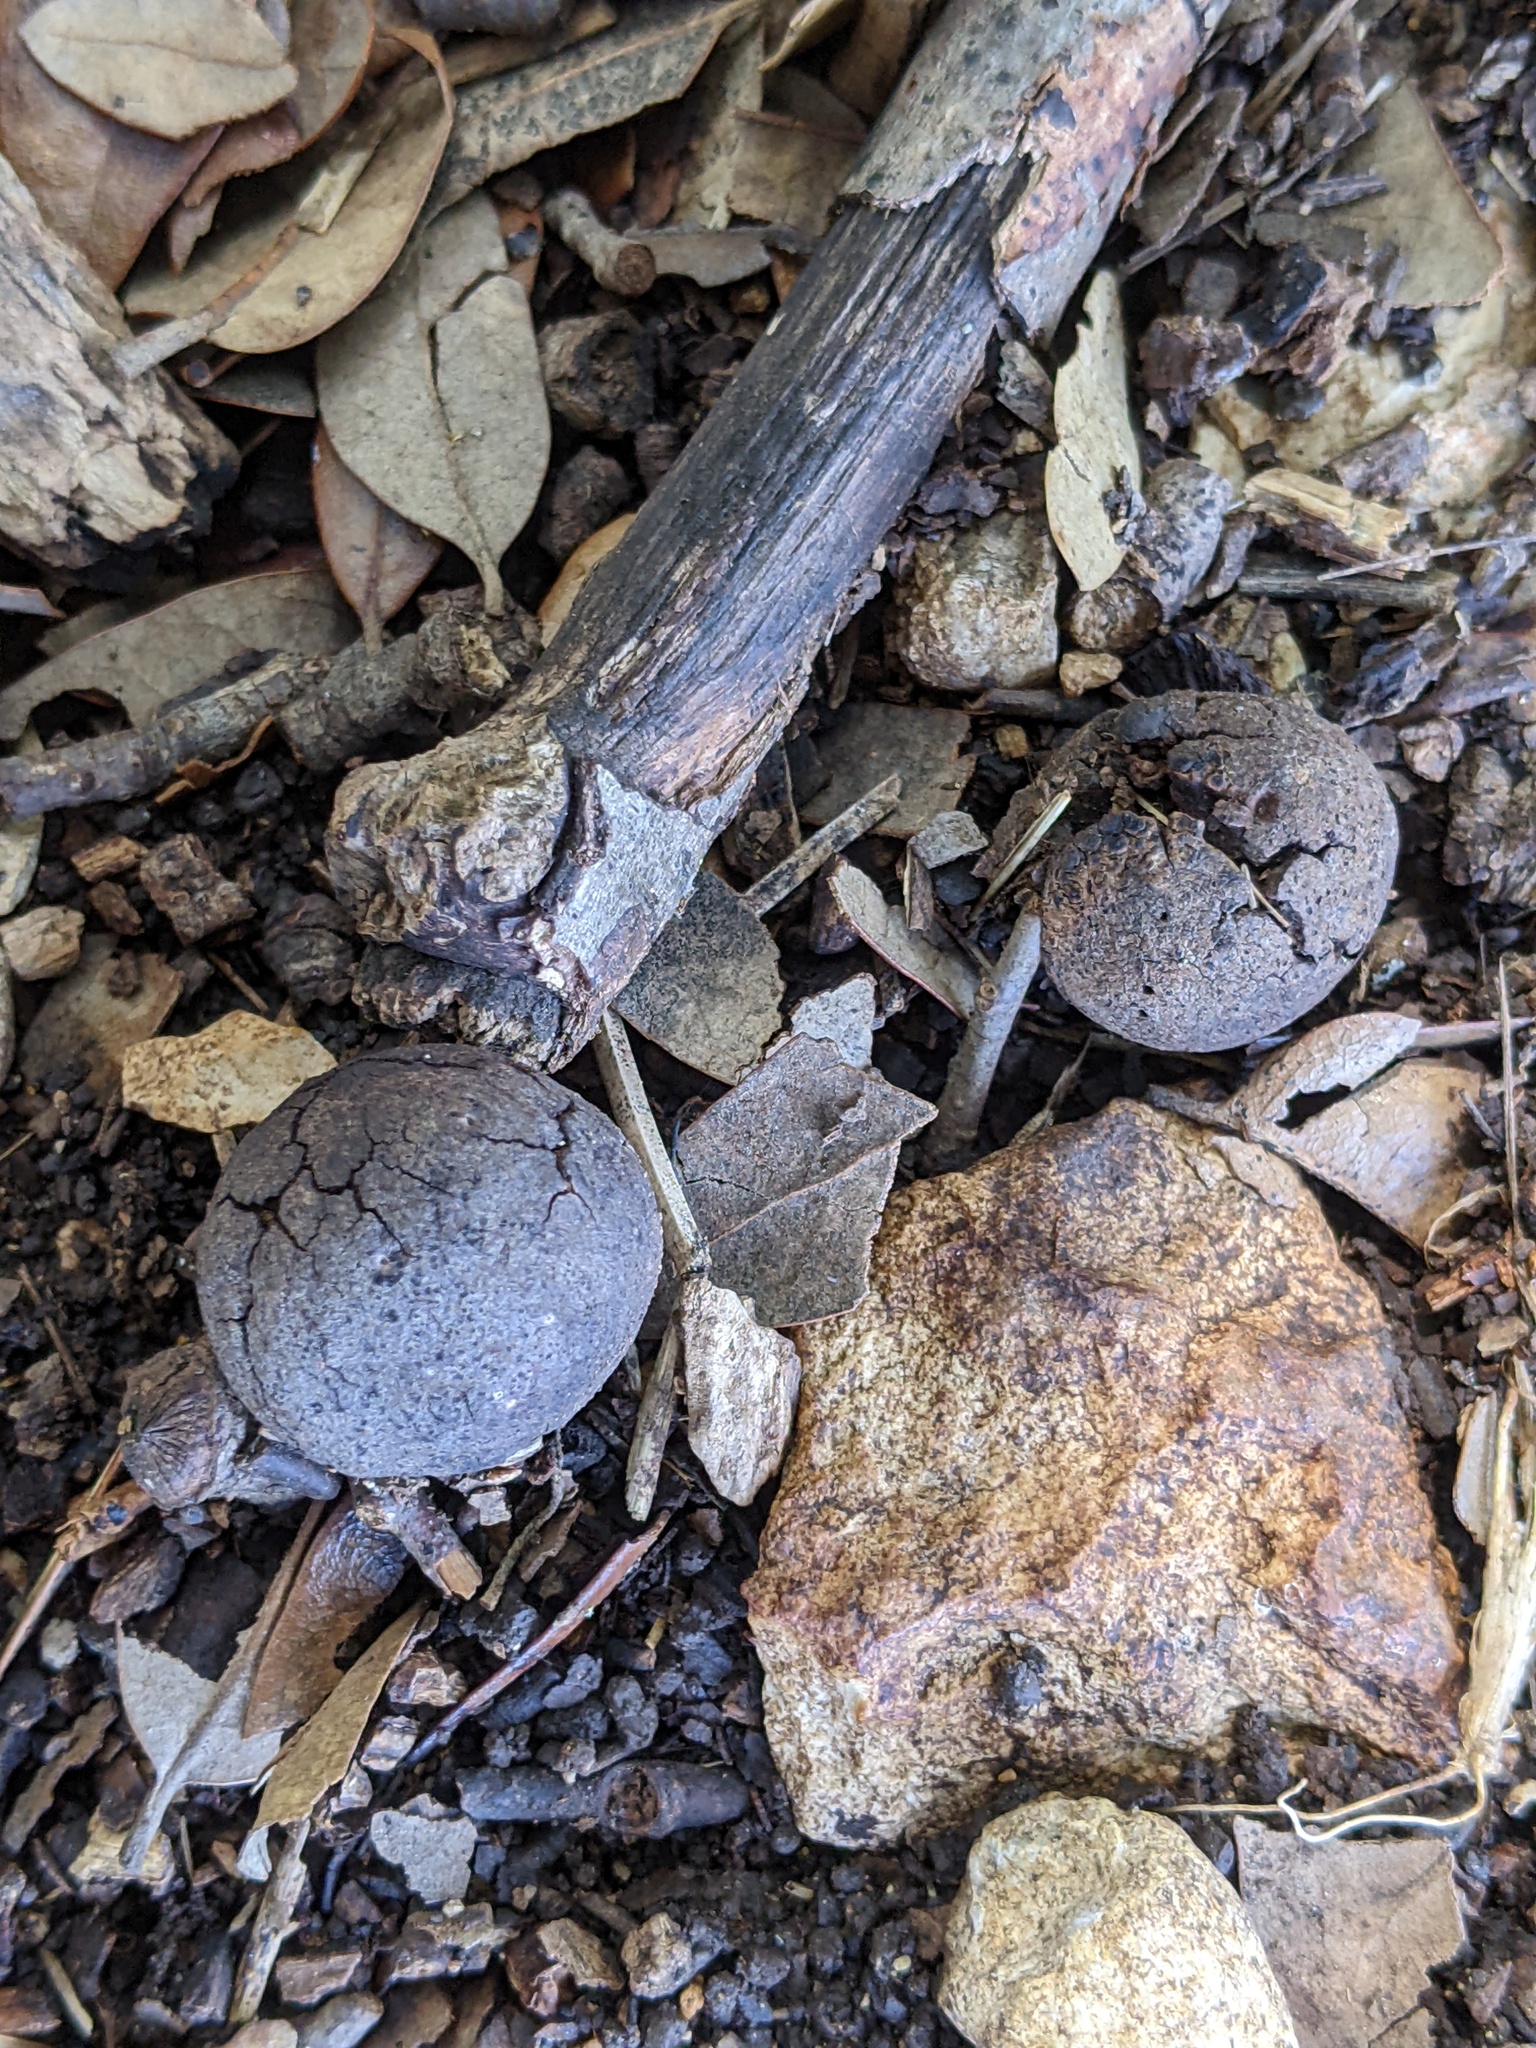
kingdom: Animalia
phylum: Arthropoda
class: Insecta
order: Hymenoptera
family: Cynipidae
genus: Disholcaspis
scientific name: Disholcaspis
